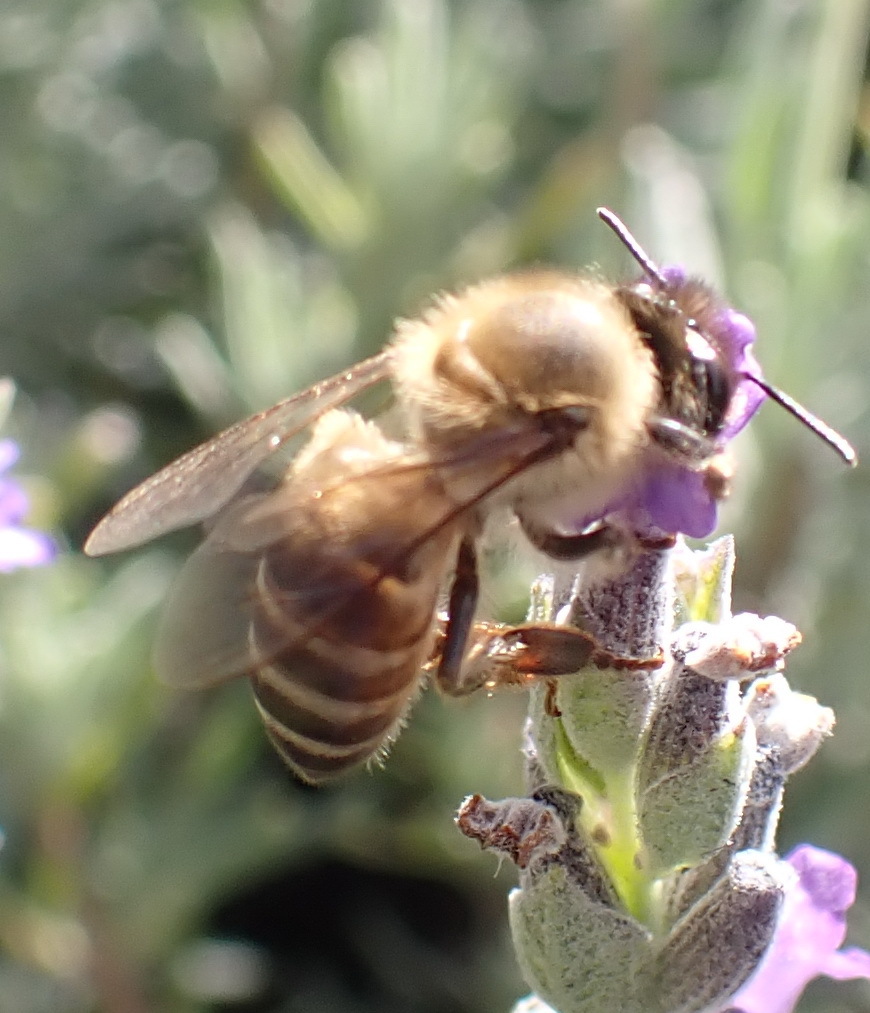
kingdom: Animalia
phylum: Arthropoda
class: Insecta
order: Hymenoptera
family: Apidae
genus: Apis
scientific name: Apis mellifera
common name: Honey bee
